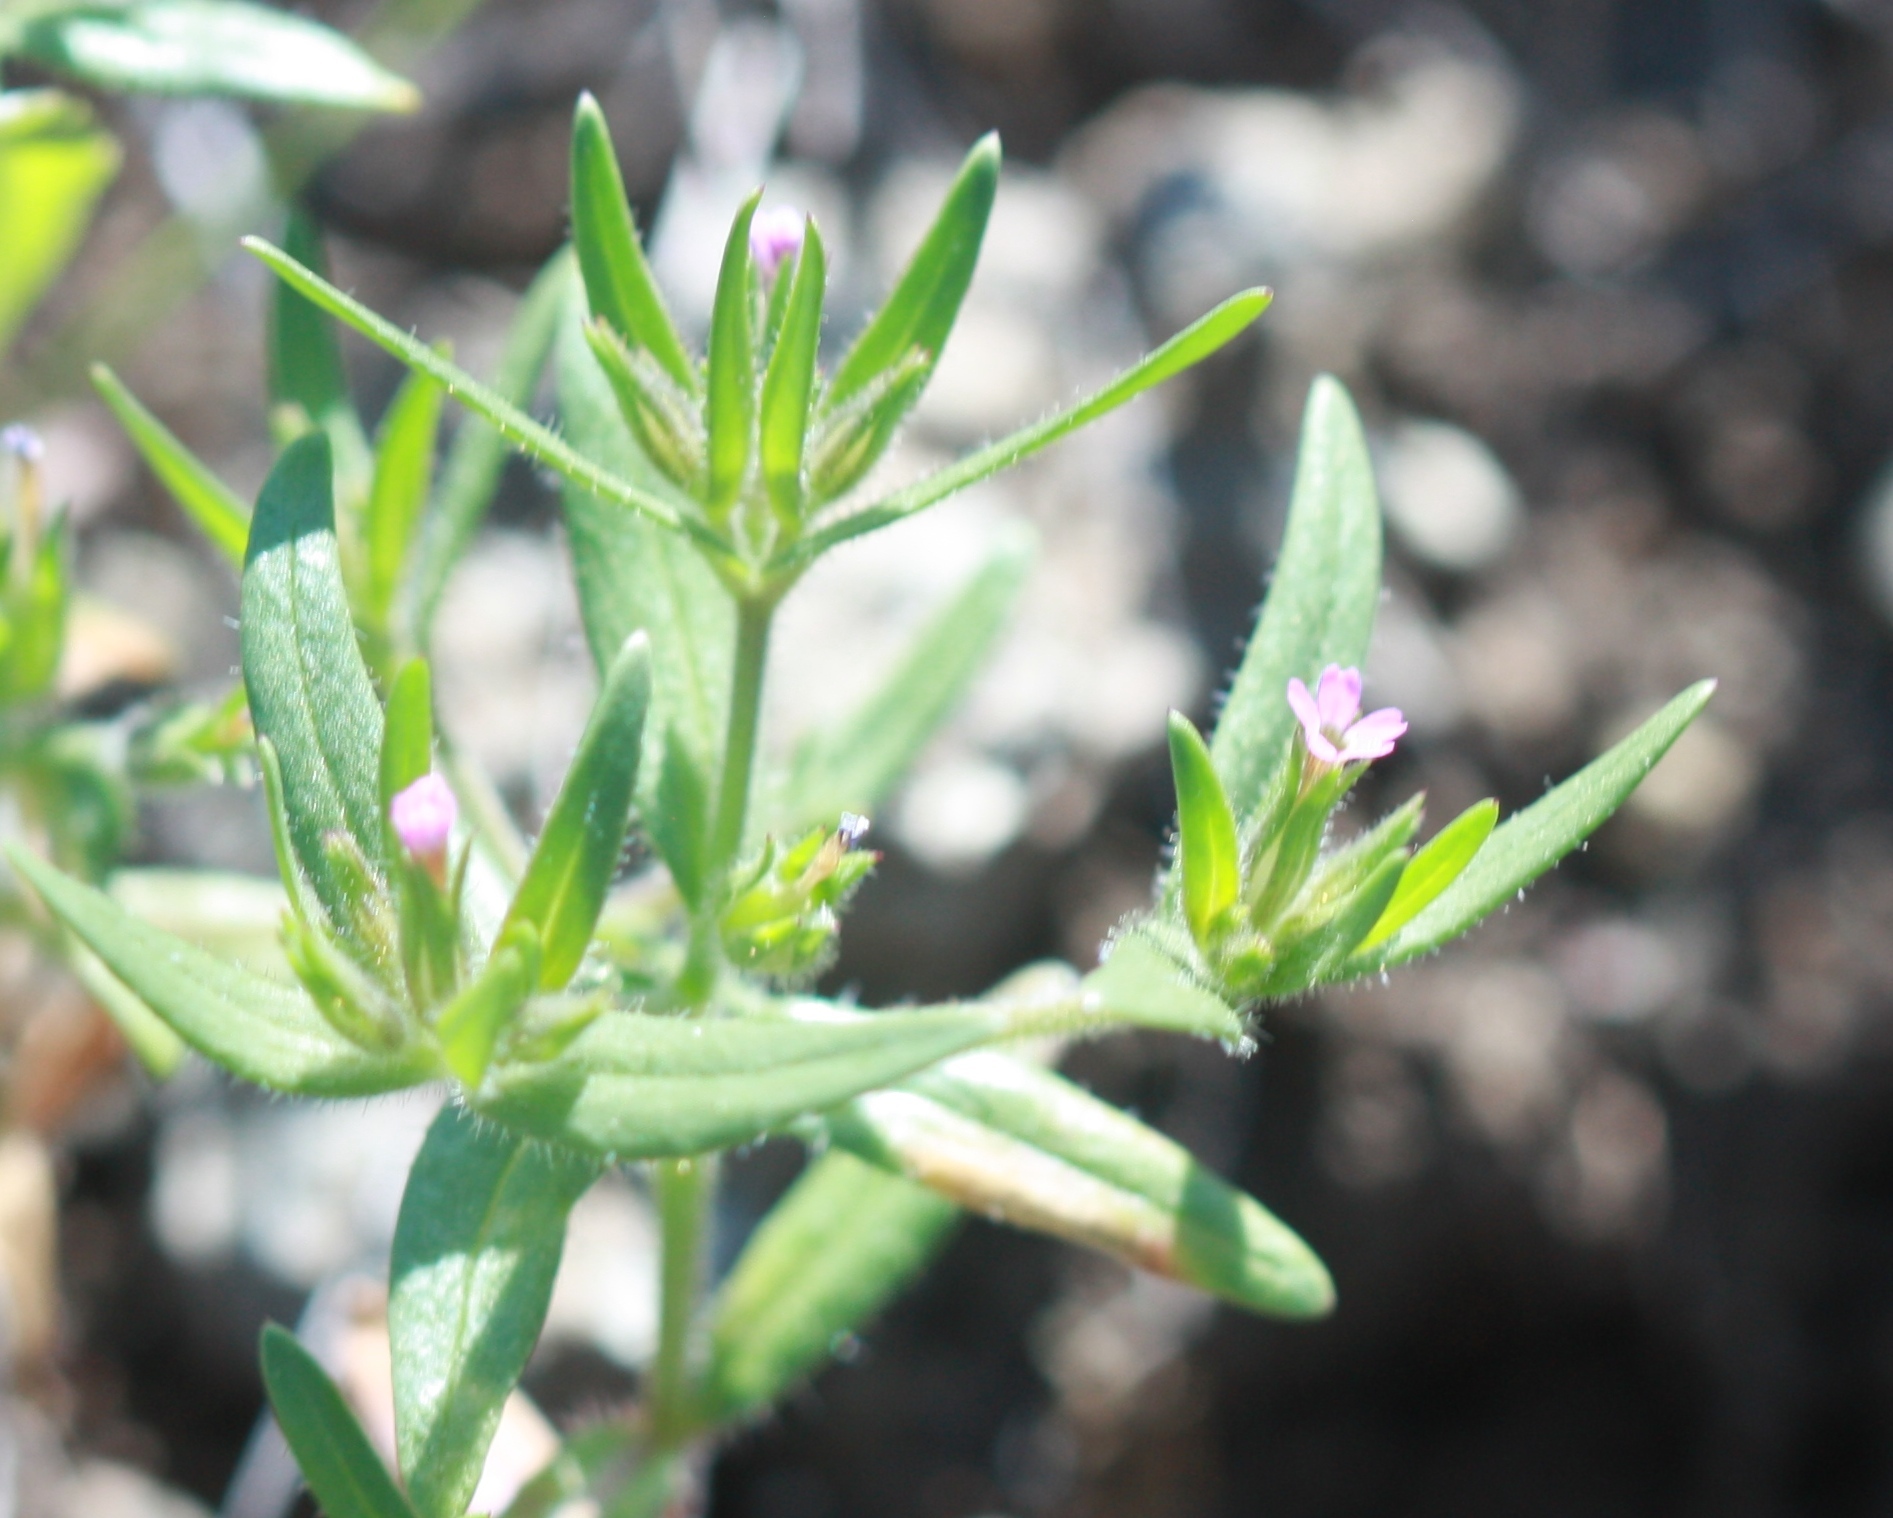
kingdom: Plantae
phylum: Tracheophyta
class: Magnoliopsida
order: Ericales
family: Polemoniaceae
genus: Phlox
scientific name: Phlox gracilis
